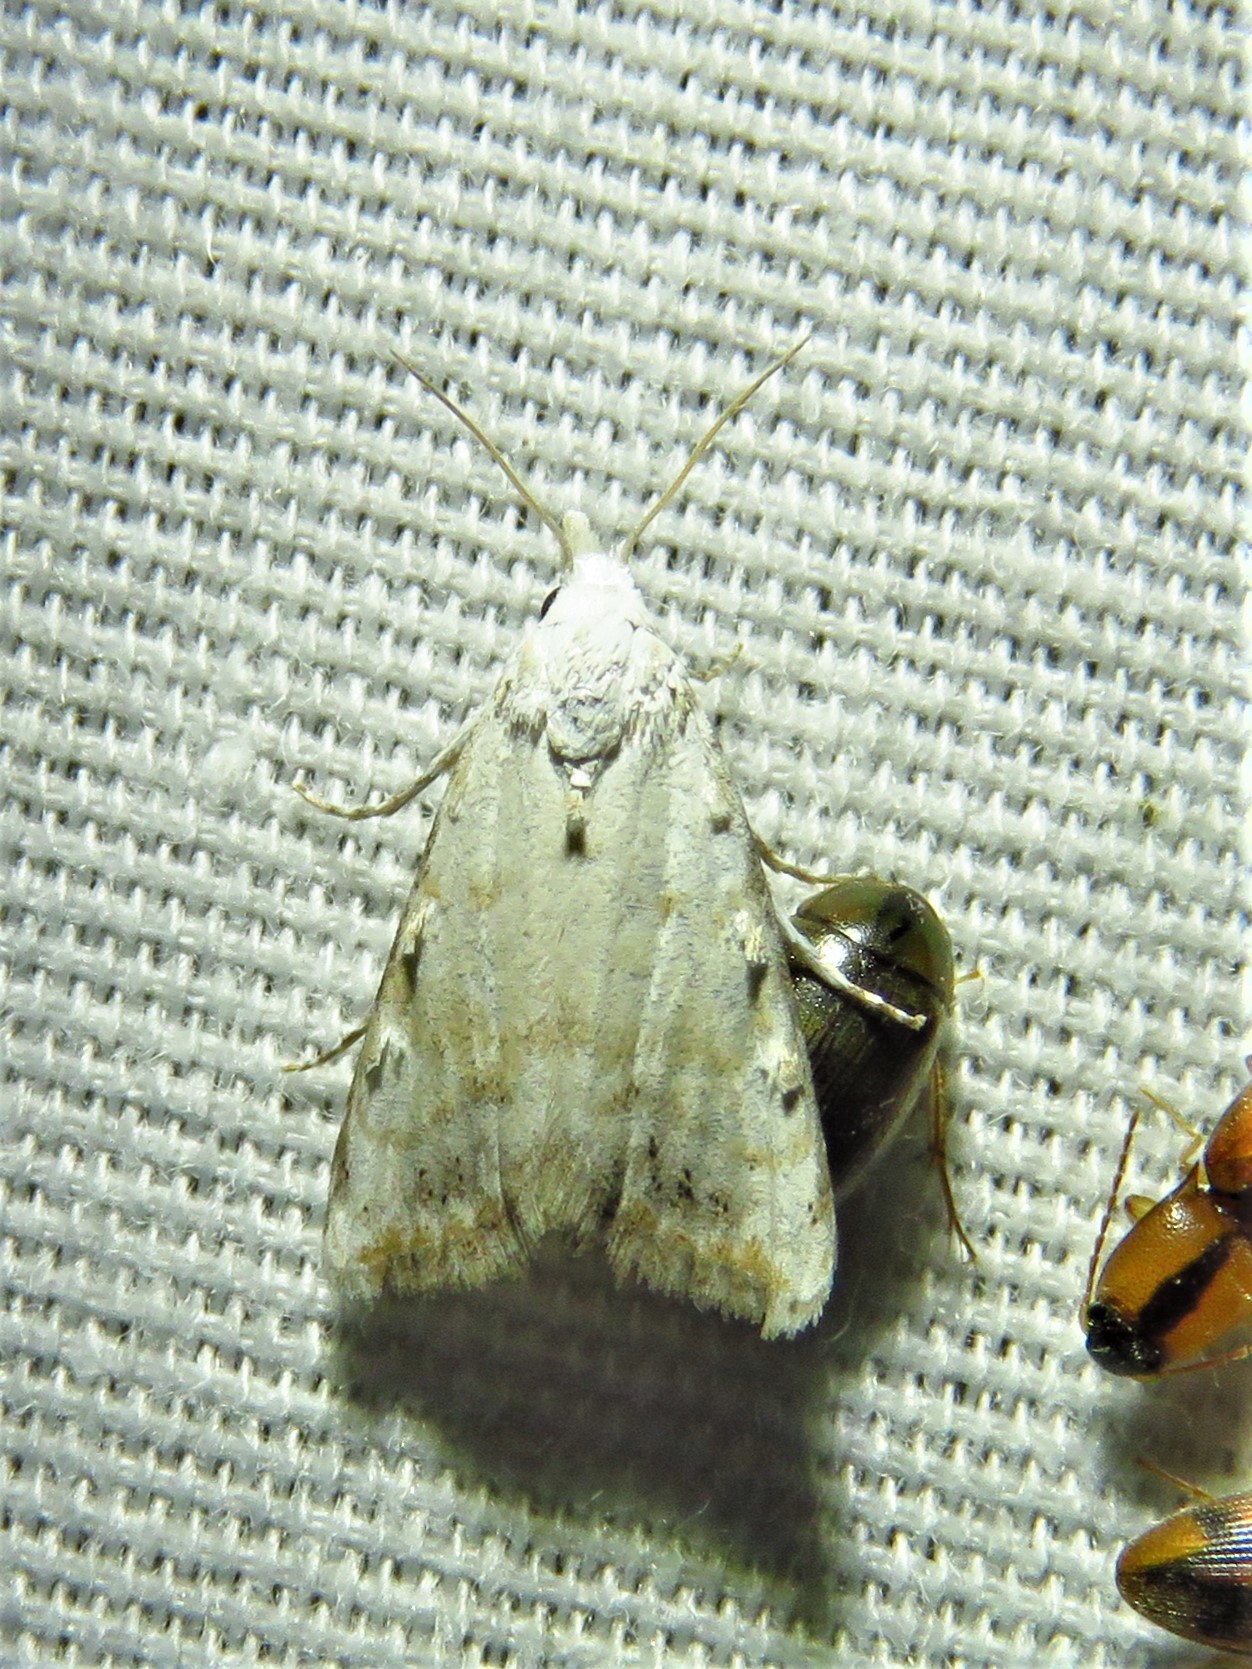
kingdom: Animalia
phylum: Arthropoda
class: Insecta
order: Lepidoptera
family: Nolidae
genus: Nola
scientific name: Nola cereella
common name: Sorghum webworm moth
